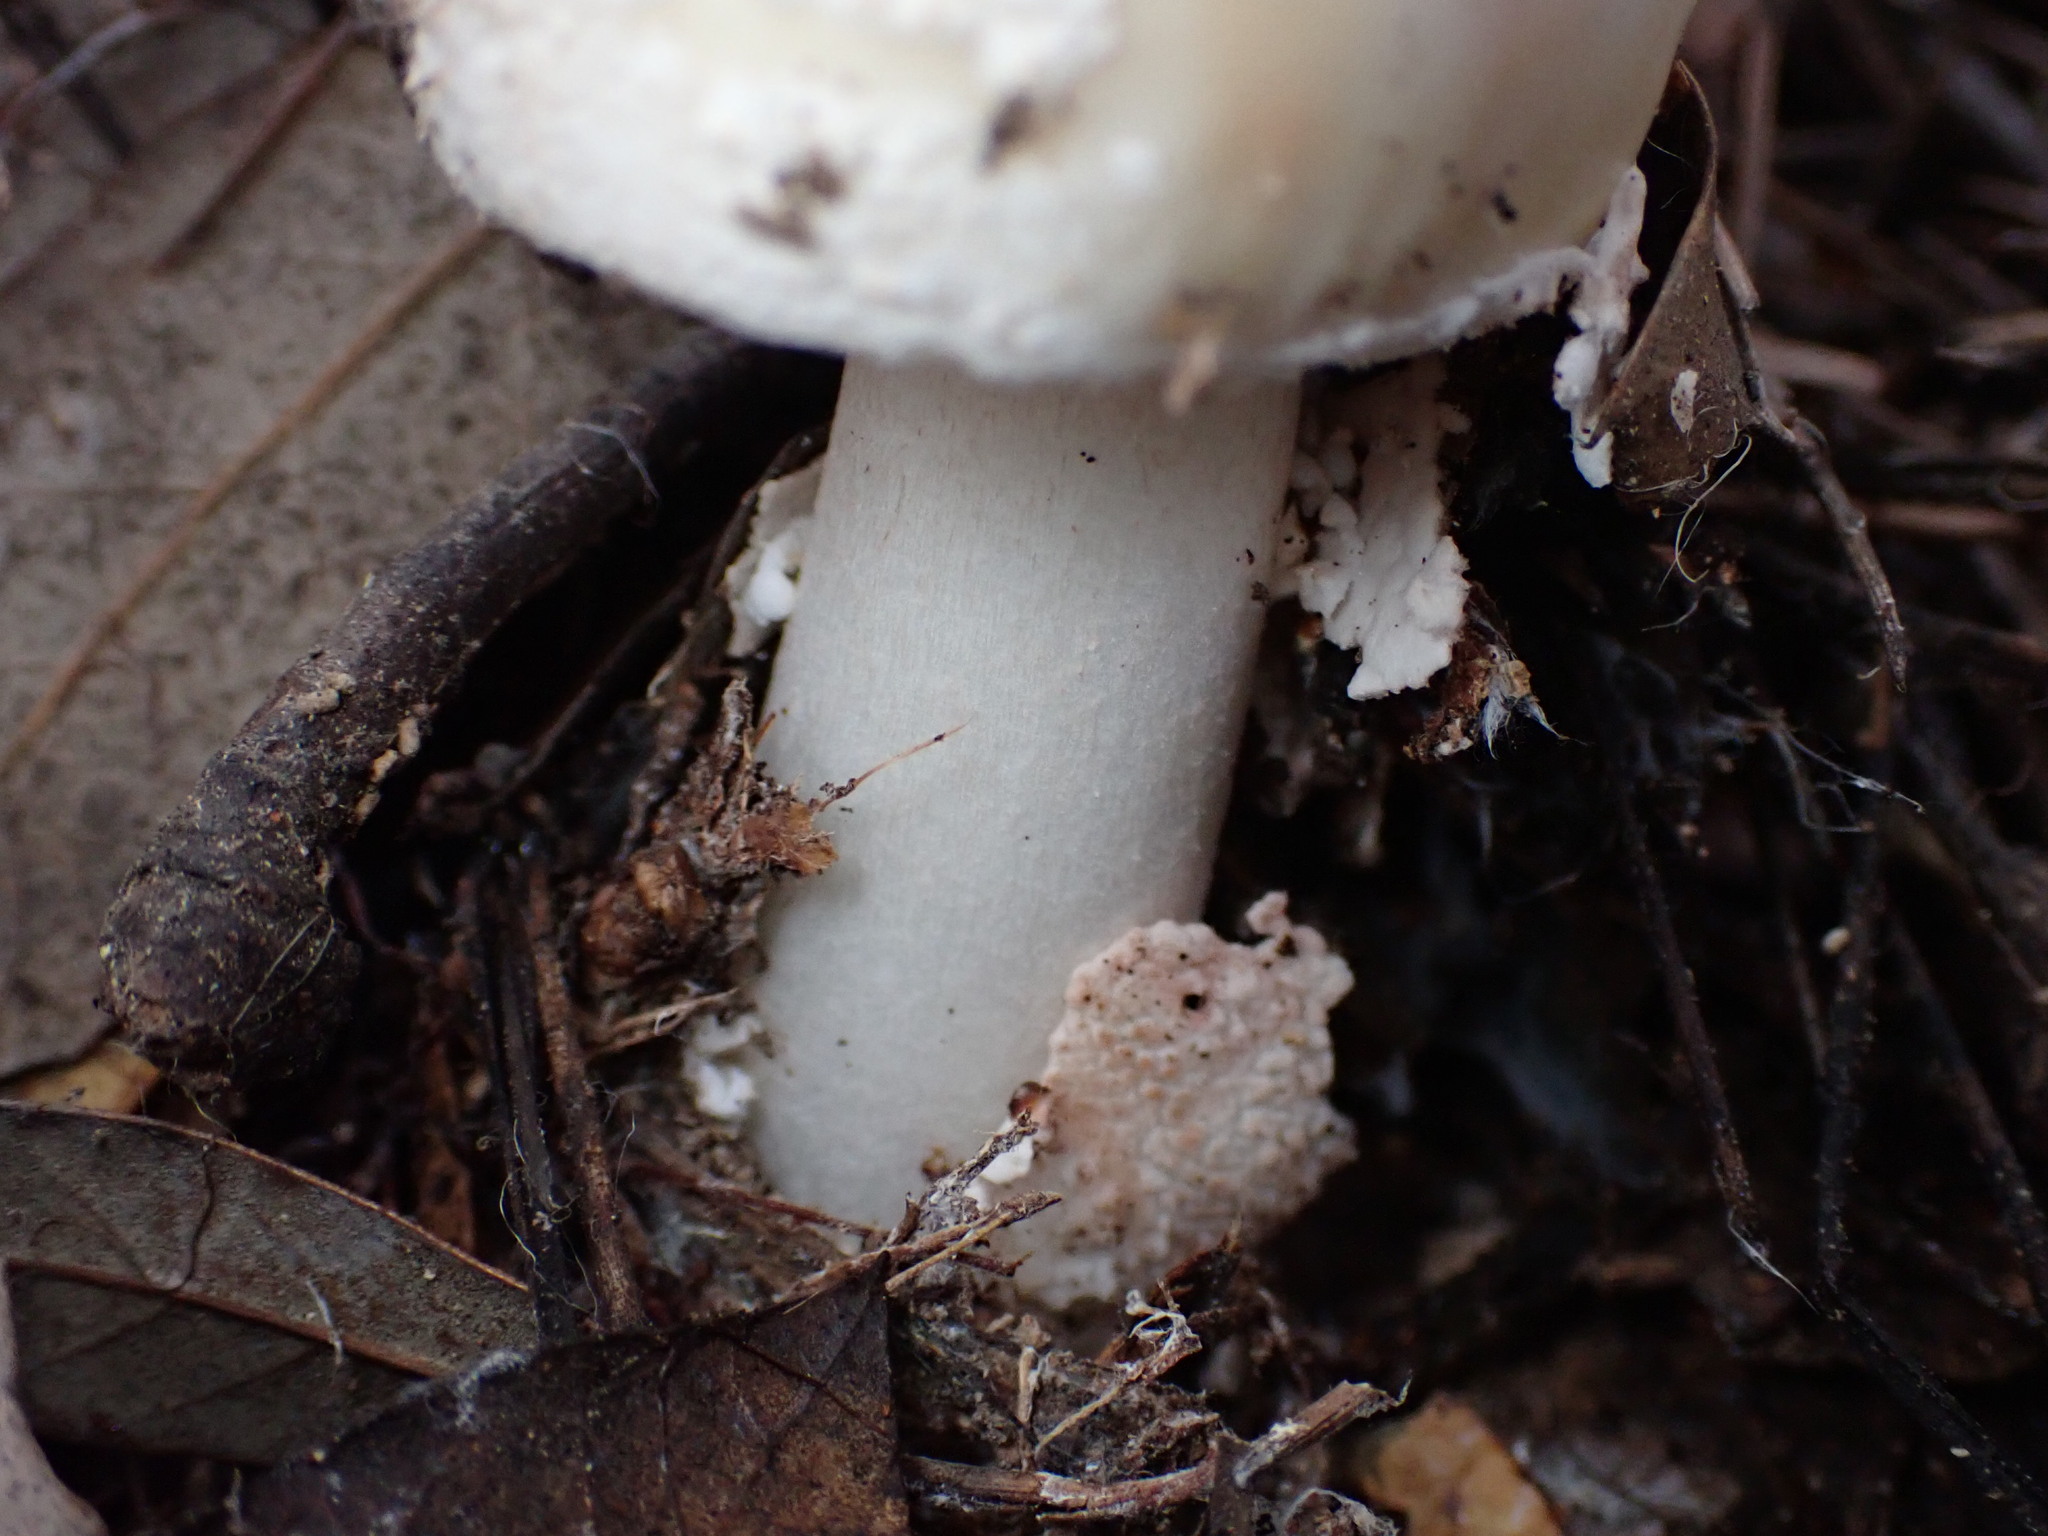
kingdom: Fungi
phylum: Basidiomycota
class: Agaricomycetes
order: Agaricales
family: Amanitaceae
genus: Amanita
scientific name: Amanita rubescens
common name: Blusher
